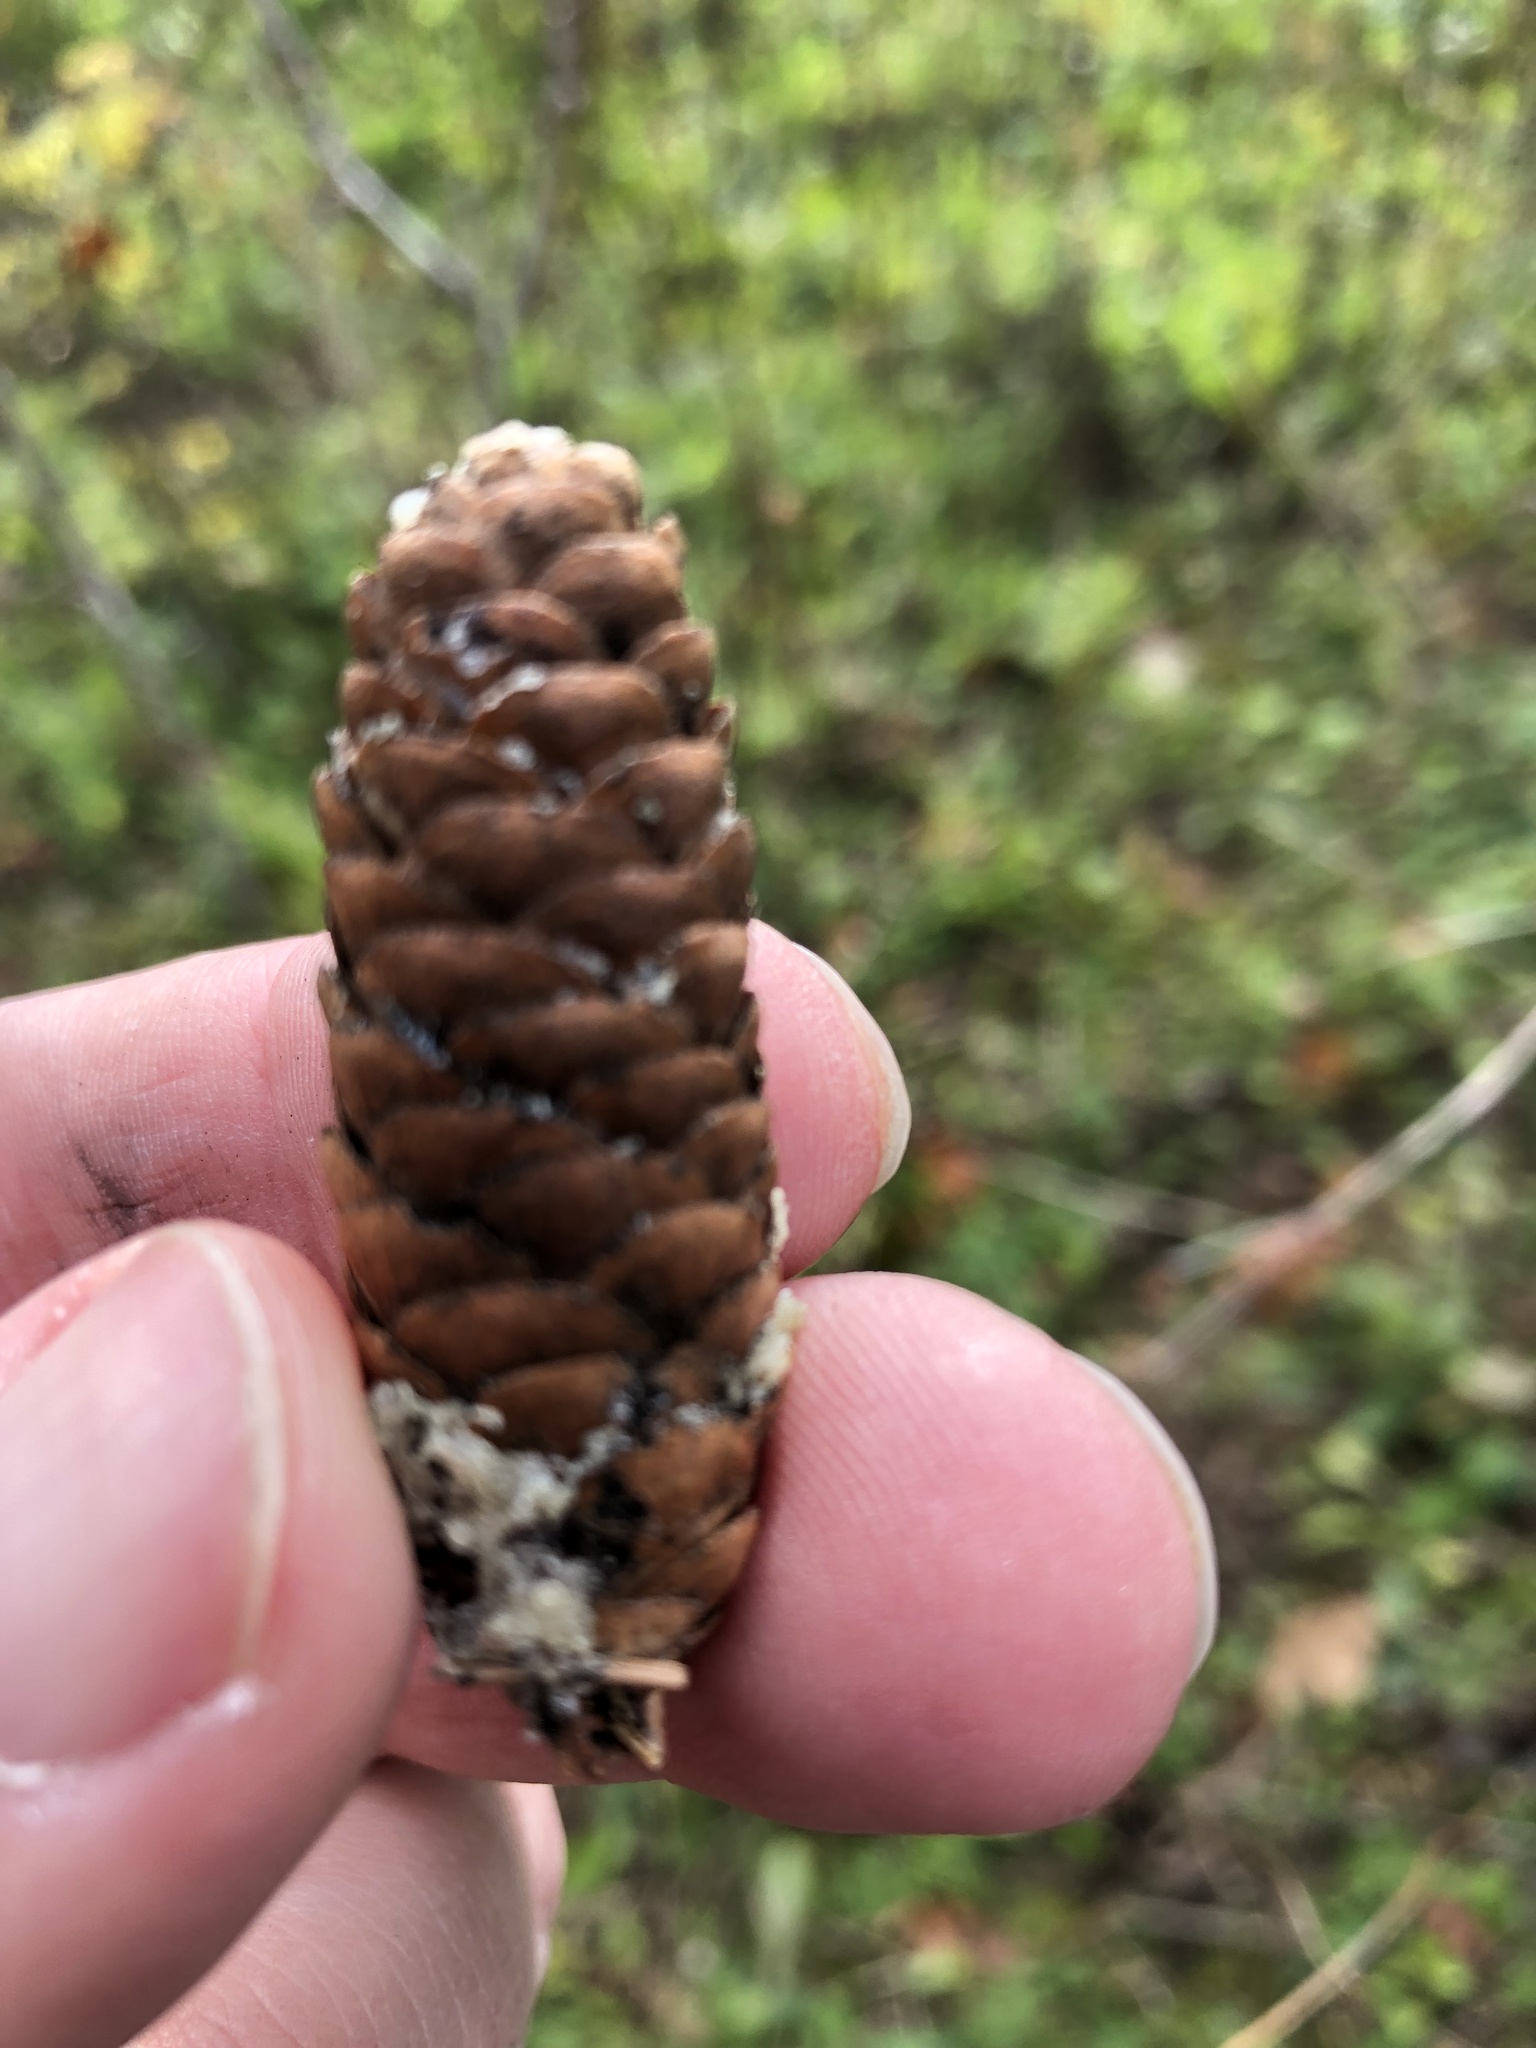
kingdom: Plantae
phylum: Tracheophyta
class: Pinopsida
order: Pinales
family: Pinaceae
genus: Picea
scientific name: Picea glauca
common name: White spruce
